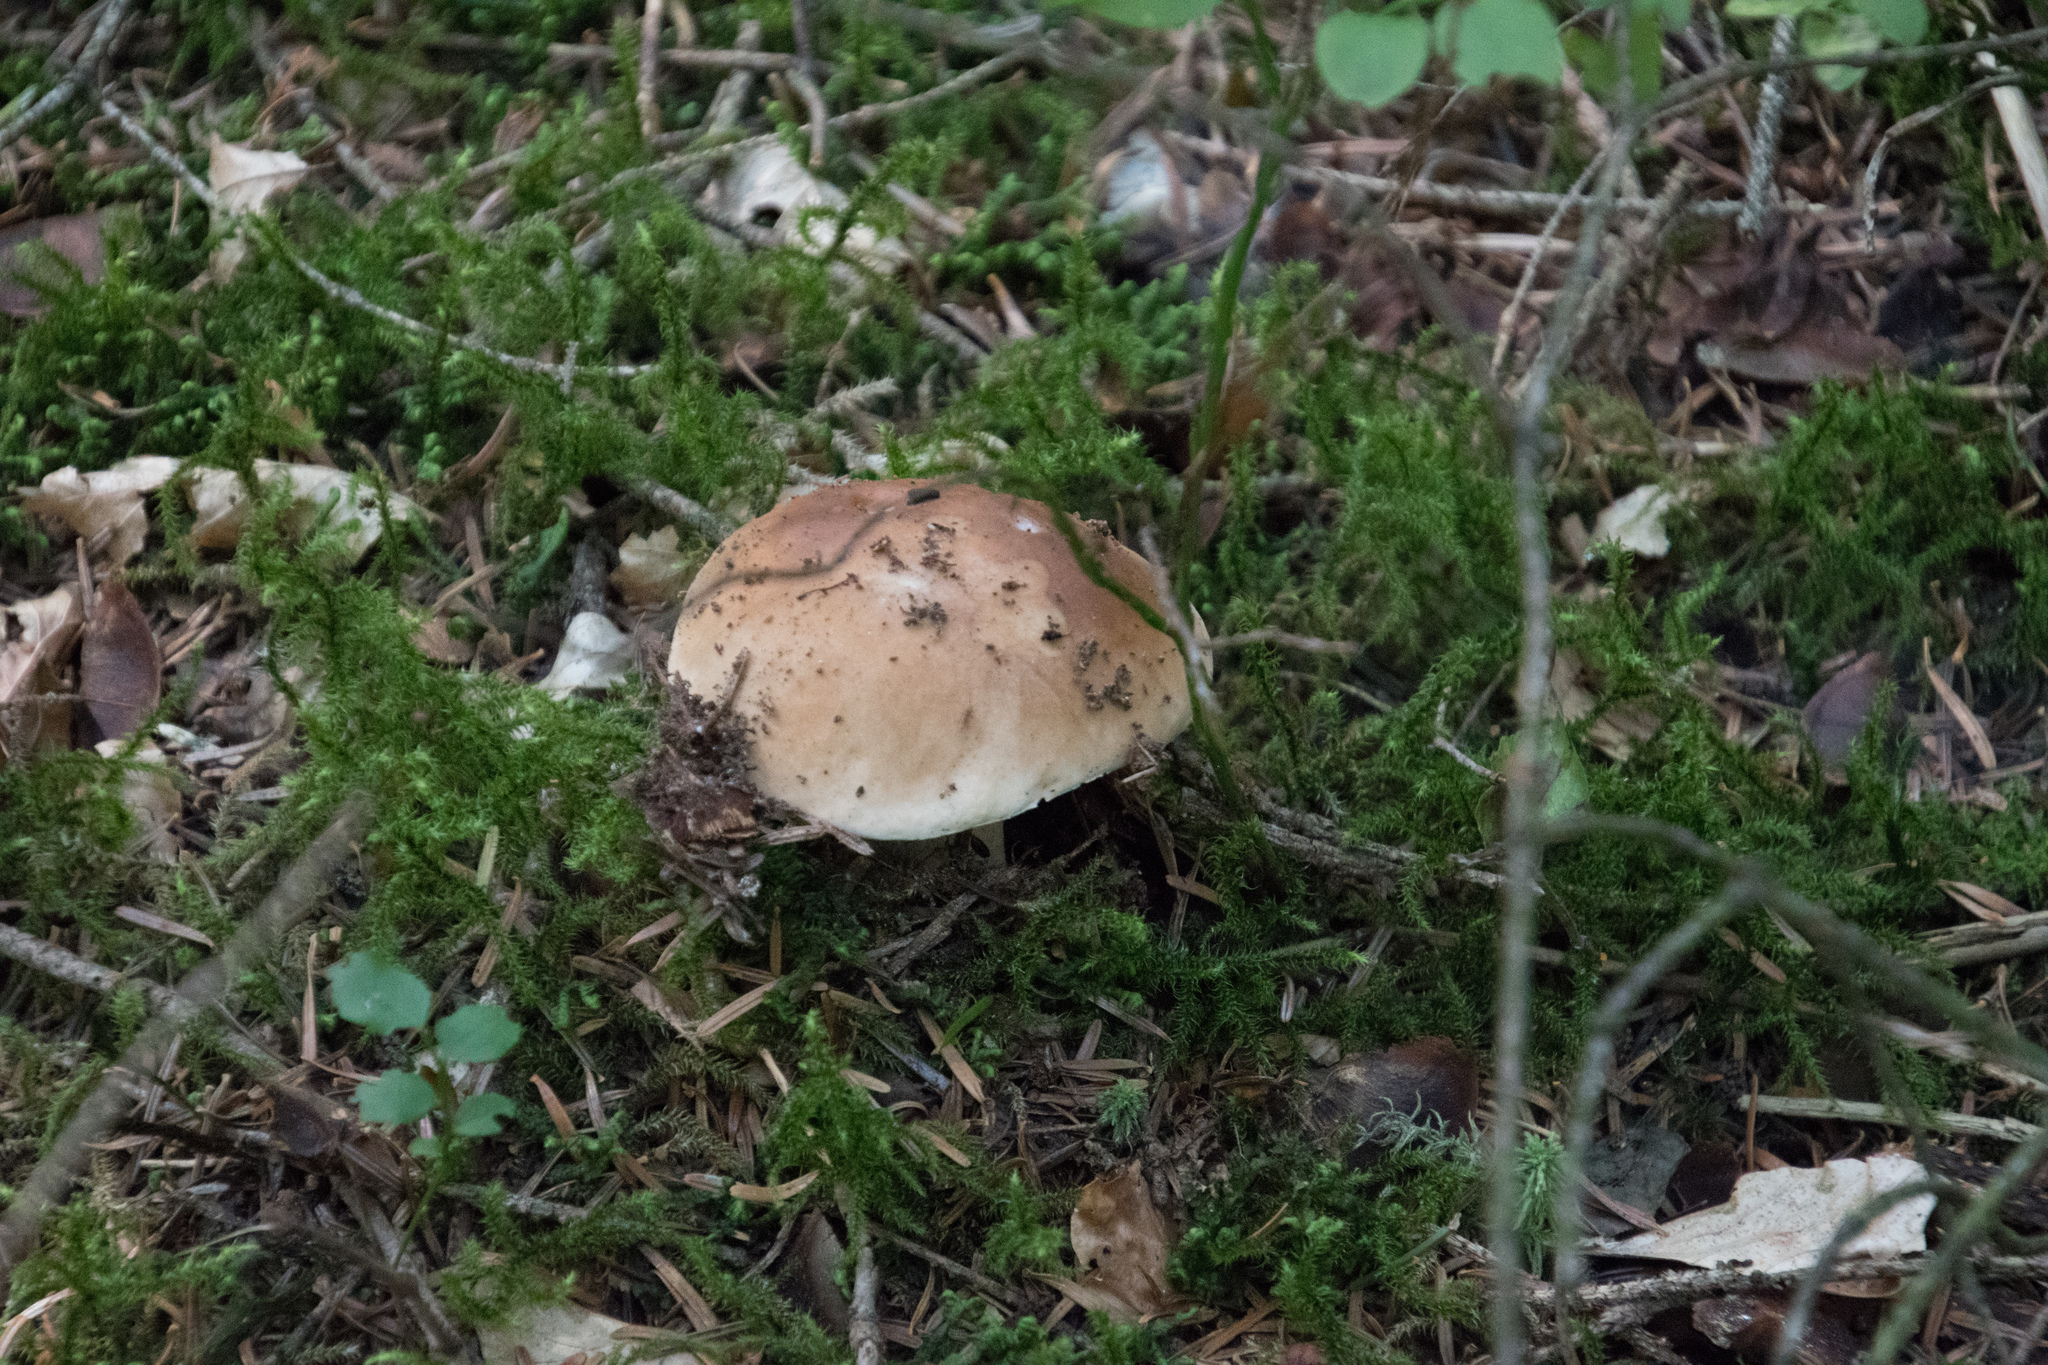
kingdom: Fungi
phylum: Basidiomycota
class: Agaricomycetes
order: Boletales
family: Boletaceae
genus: Boletus
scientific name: Boletus edulis
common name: Cep
